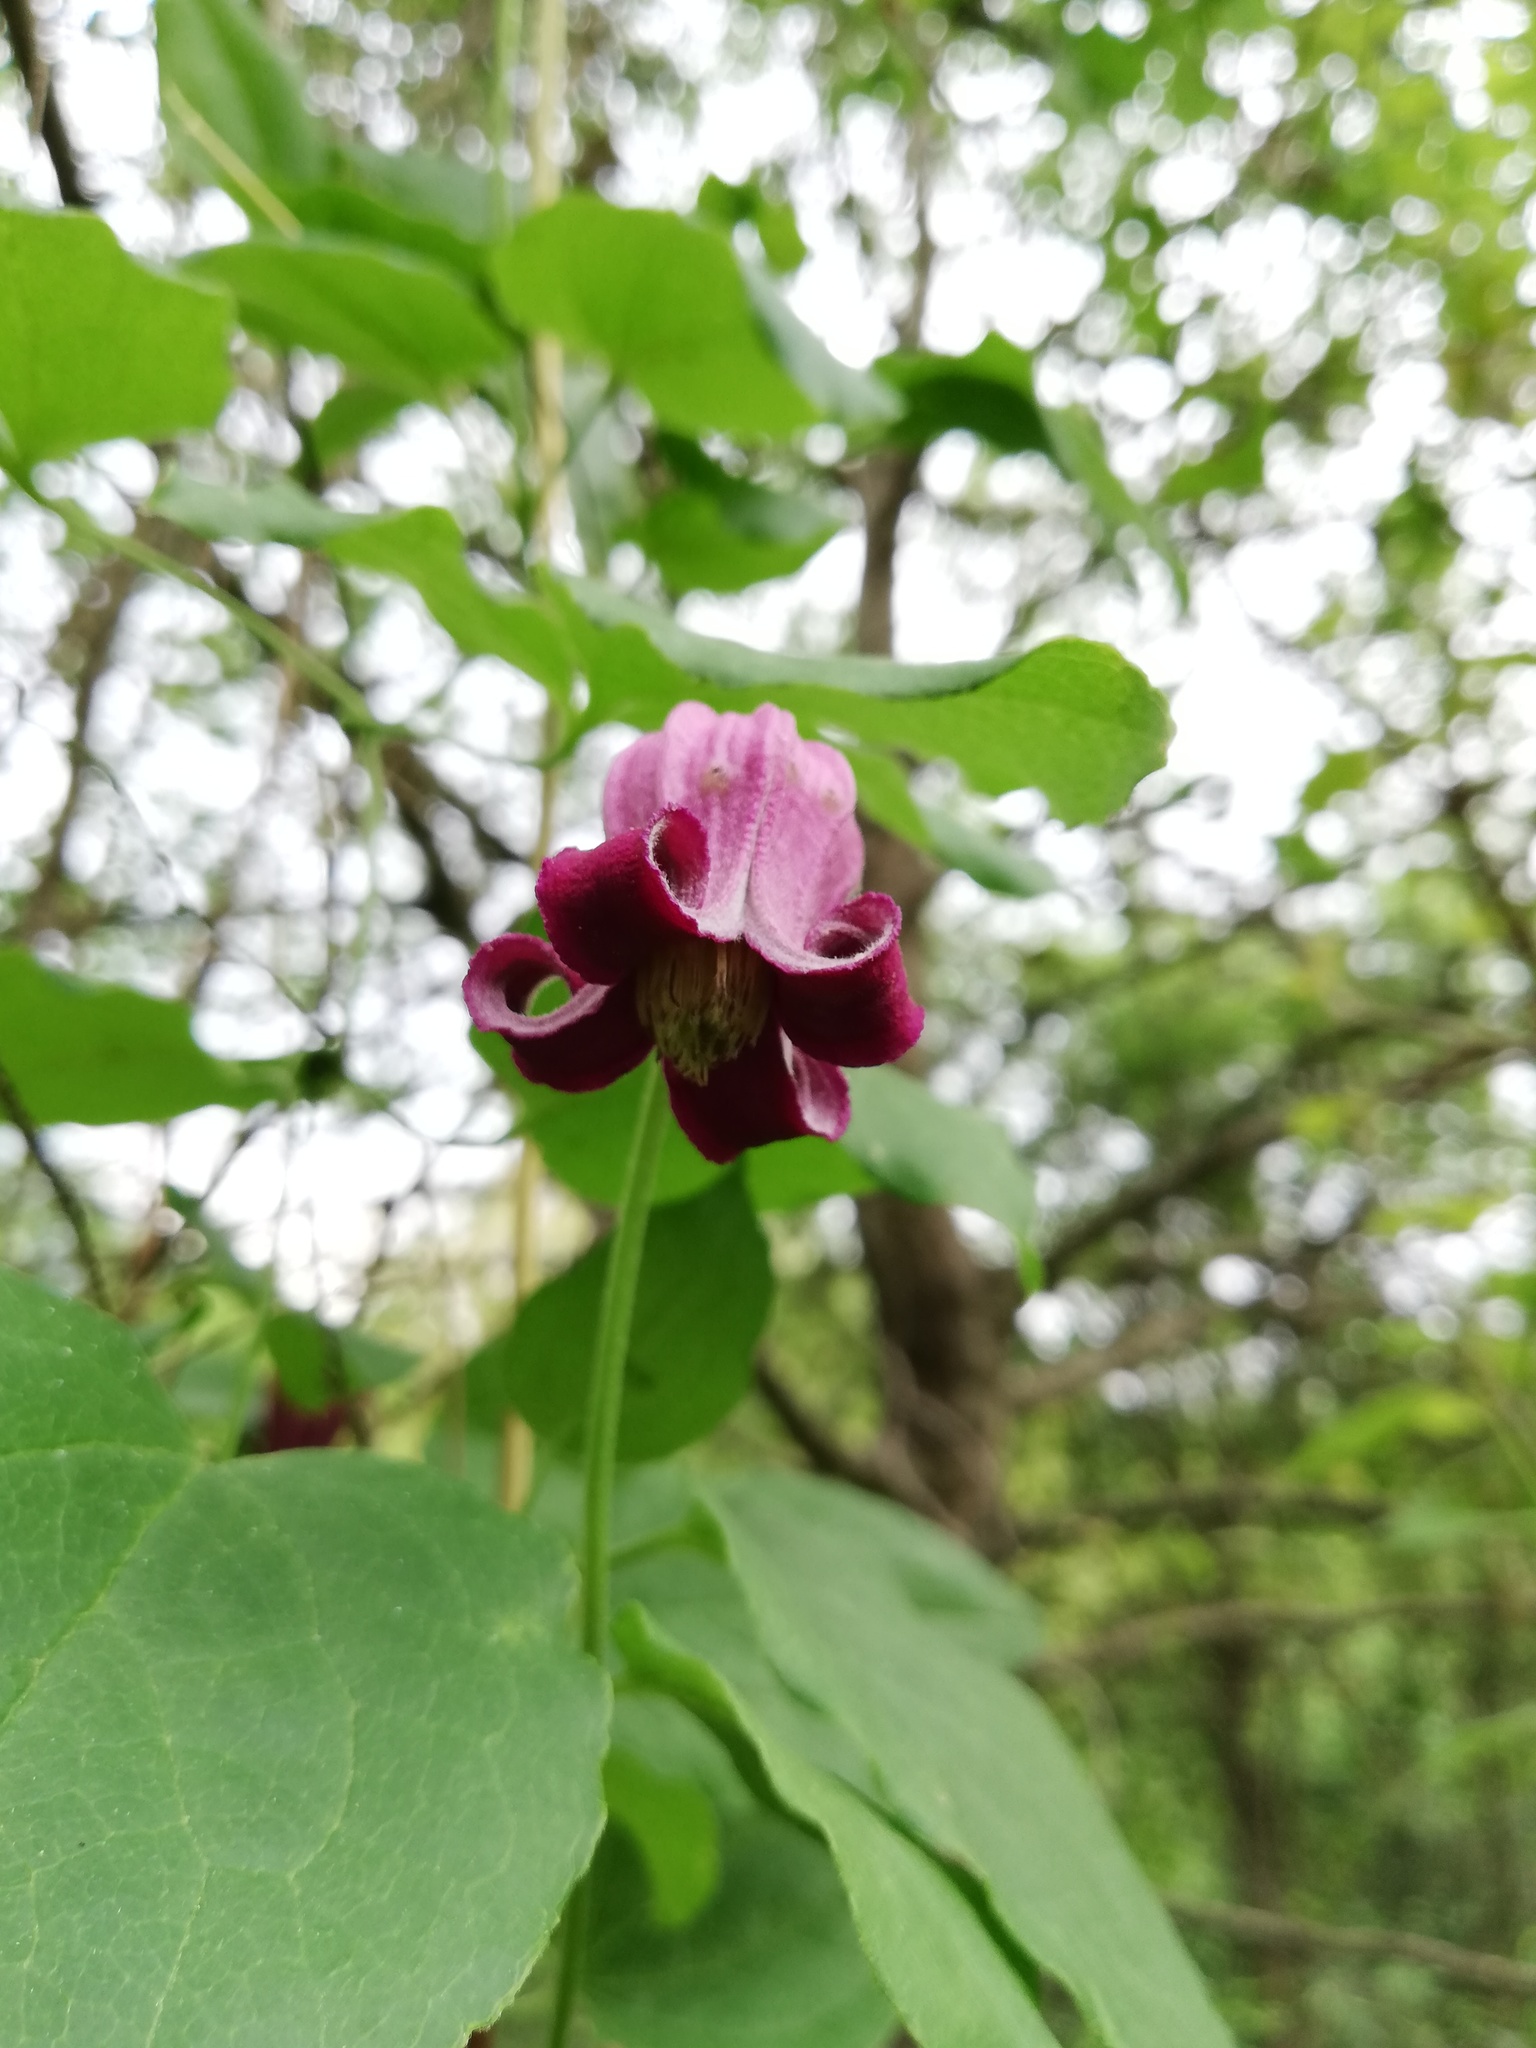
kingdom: Plantae
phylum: Tracheophyta
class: Magnoliopsida
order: Ranunculales
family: Ranunculaceae
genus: Clematis
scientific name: Clematis pitcheri
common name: Bellflower clematis
